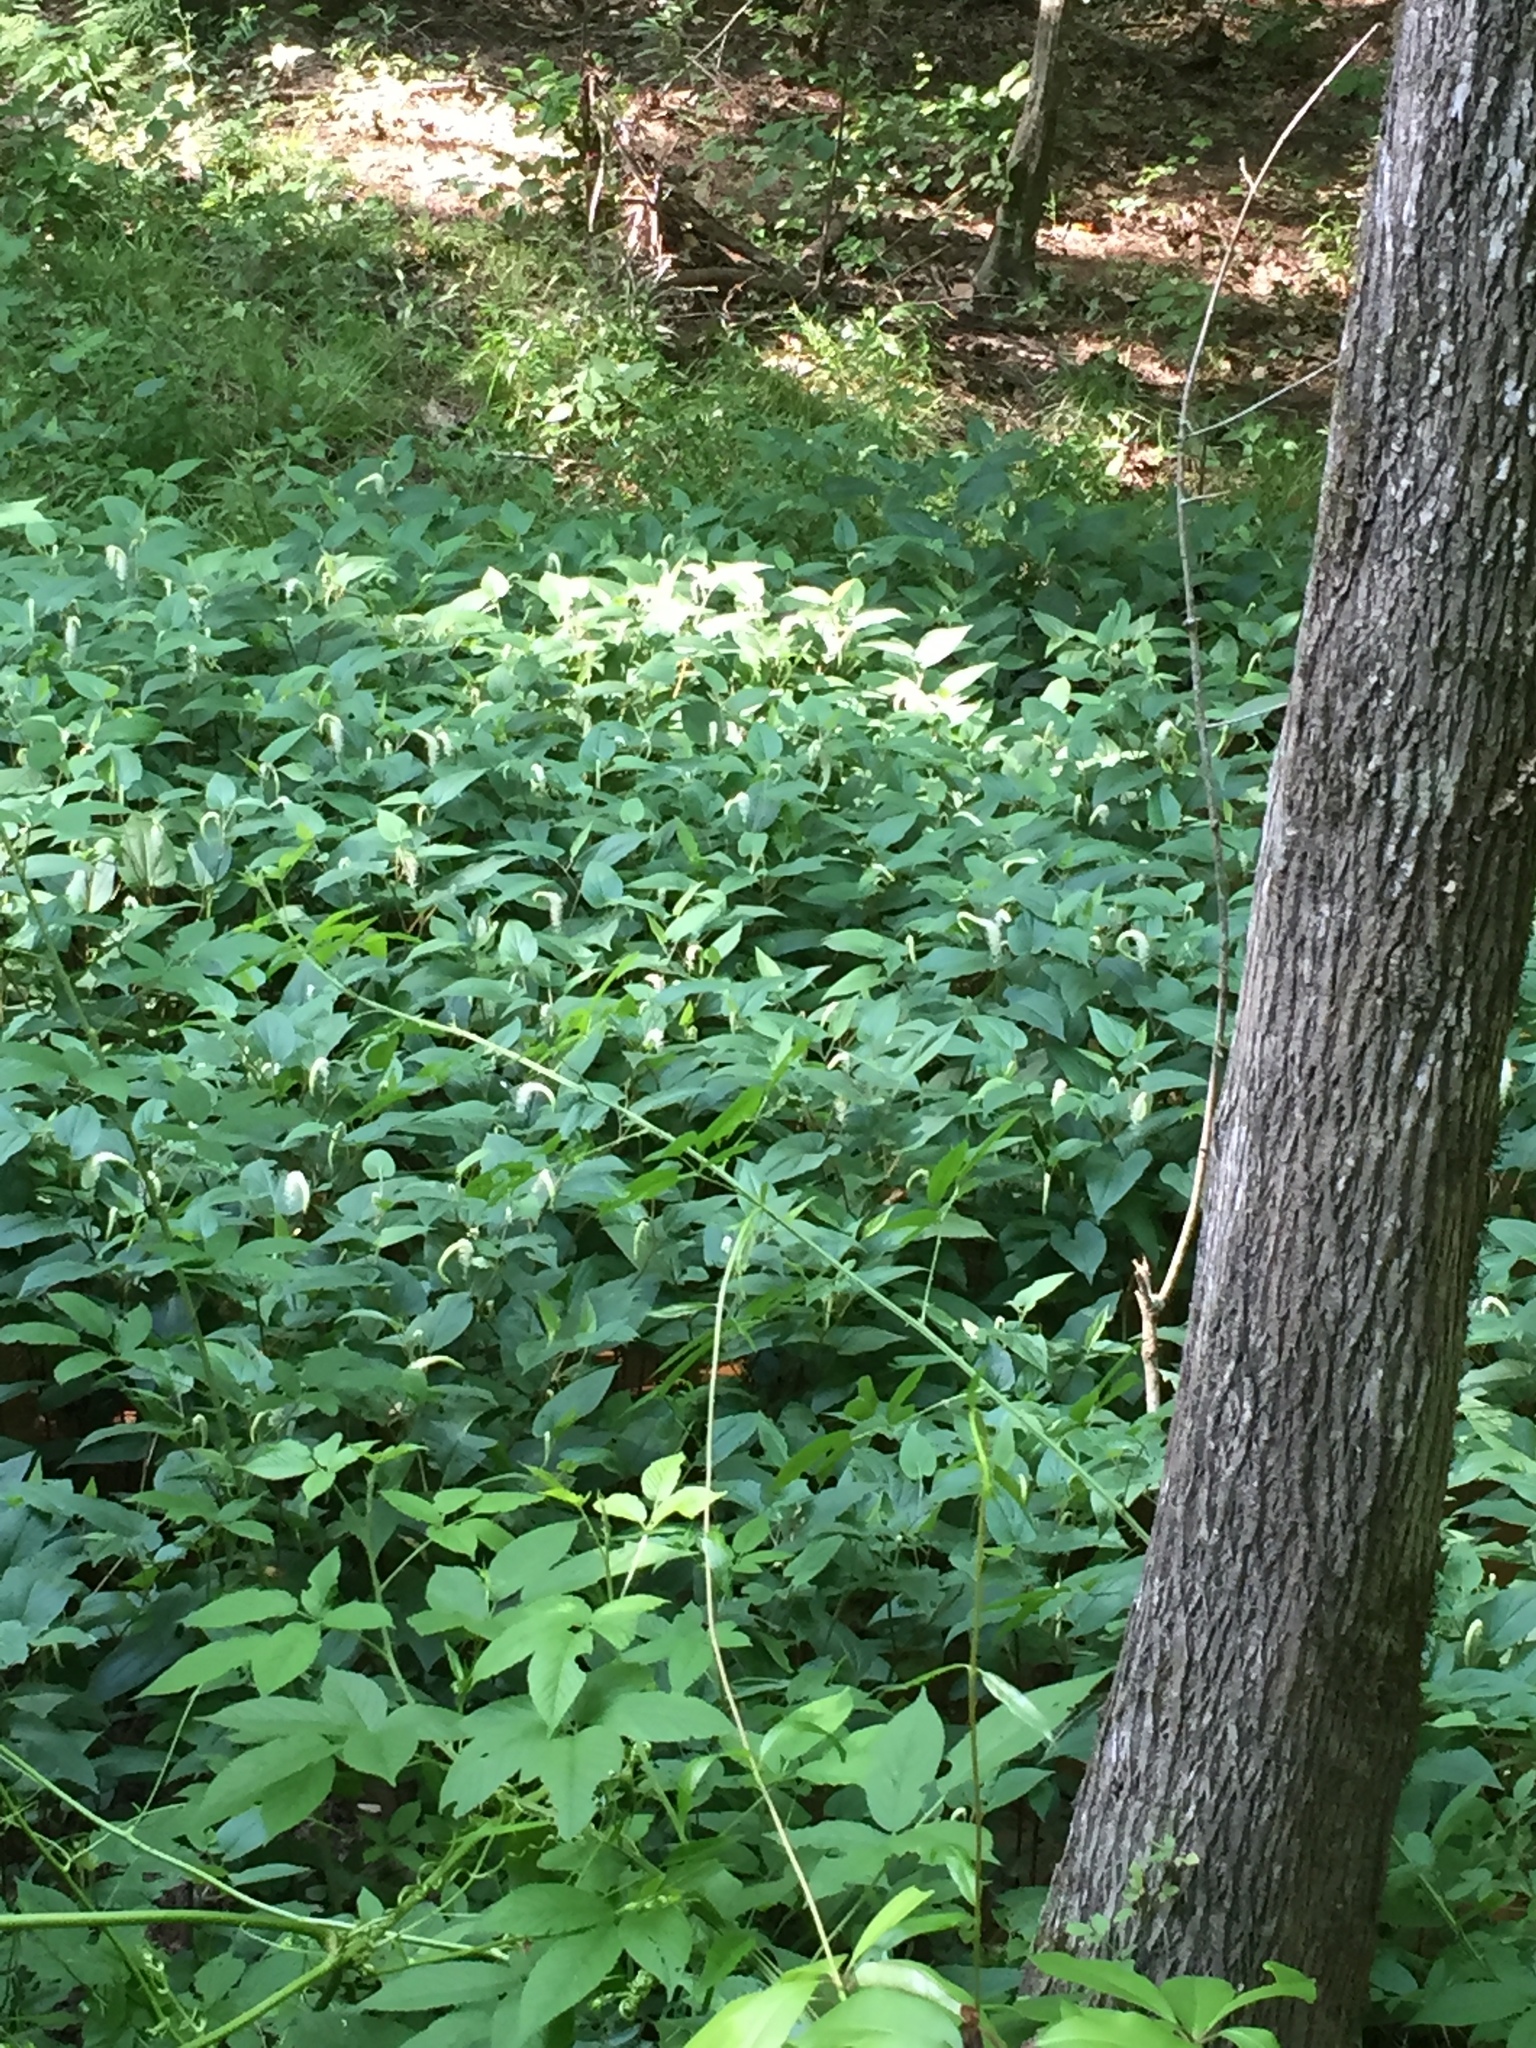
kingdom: Plantae
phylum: Tracheophyta
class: Magnoliopsida
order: Piperales
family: Saururaceae
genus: Saururus
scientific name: Saururus cernuus
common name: Lizard's-tail
